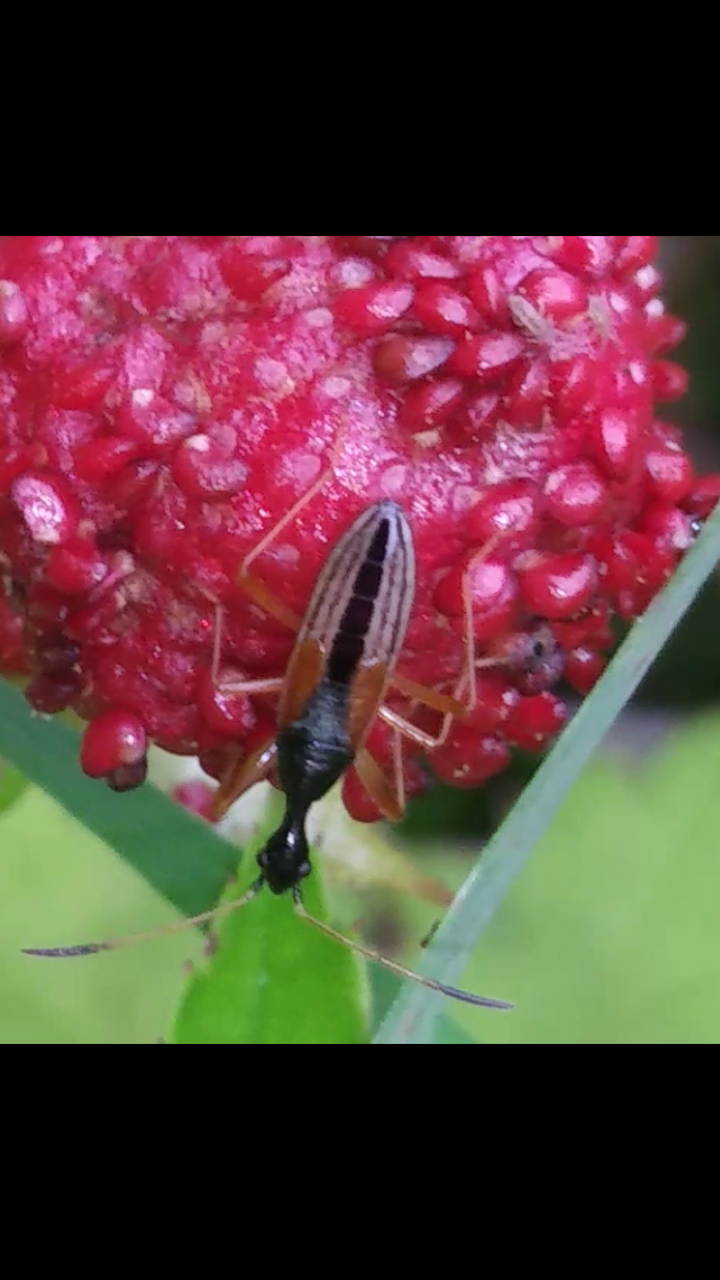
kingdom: Animalia
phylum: Arthropoda
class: Insecta
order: Hemiptera
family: Rhyparochromidae
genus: Myodocha
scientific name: Myodocha serripes
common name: Long-necked seed bug
